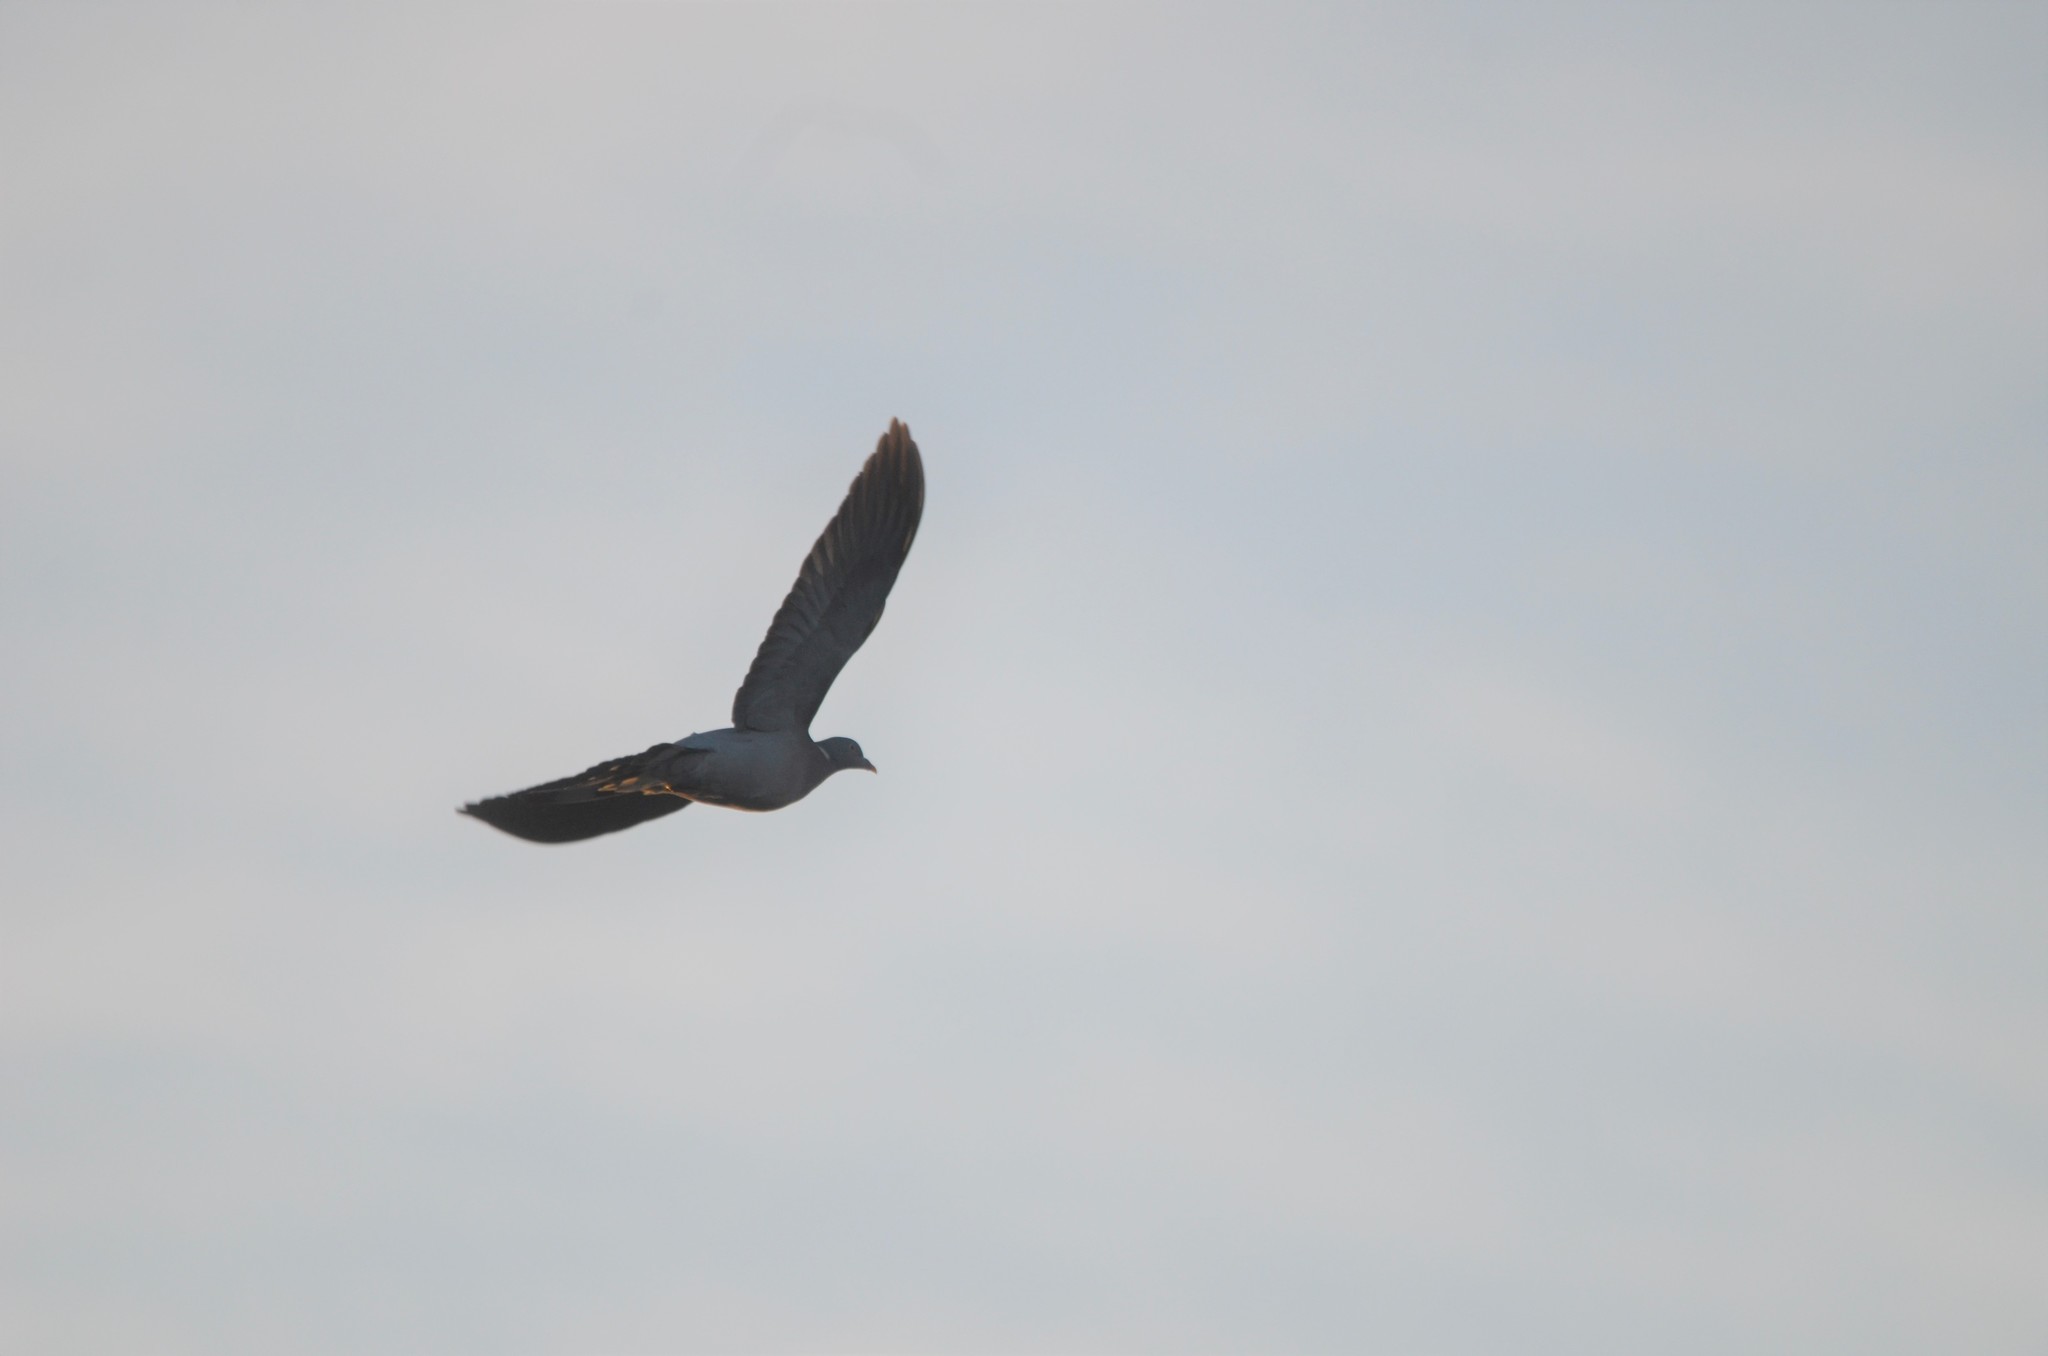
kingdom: Animalia
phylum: Chordata
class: Aves
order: Columbiformes
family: Columbidae
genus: Columba
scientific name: Columba palumbus
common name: Common wood pigeon
